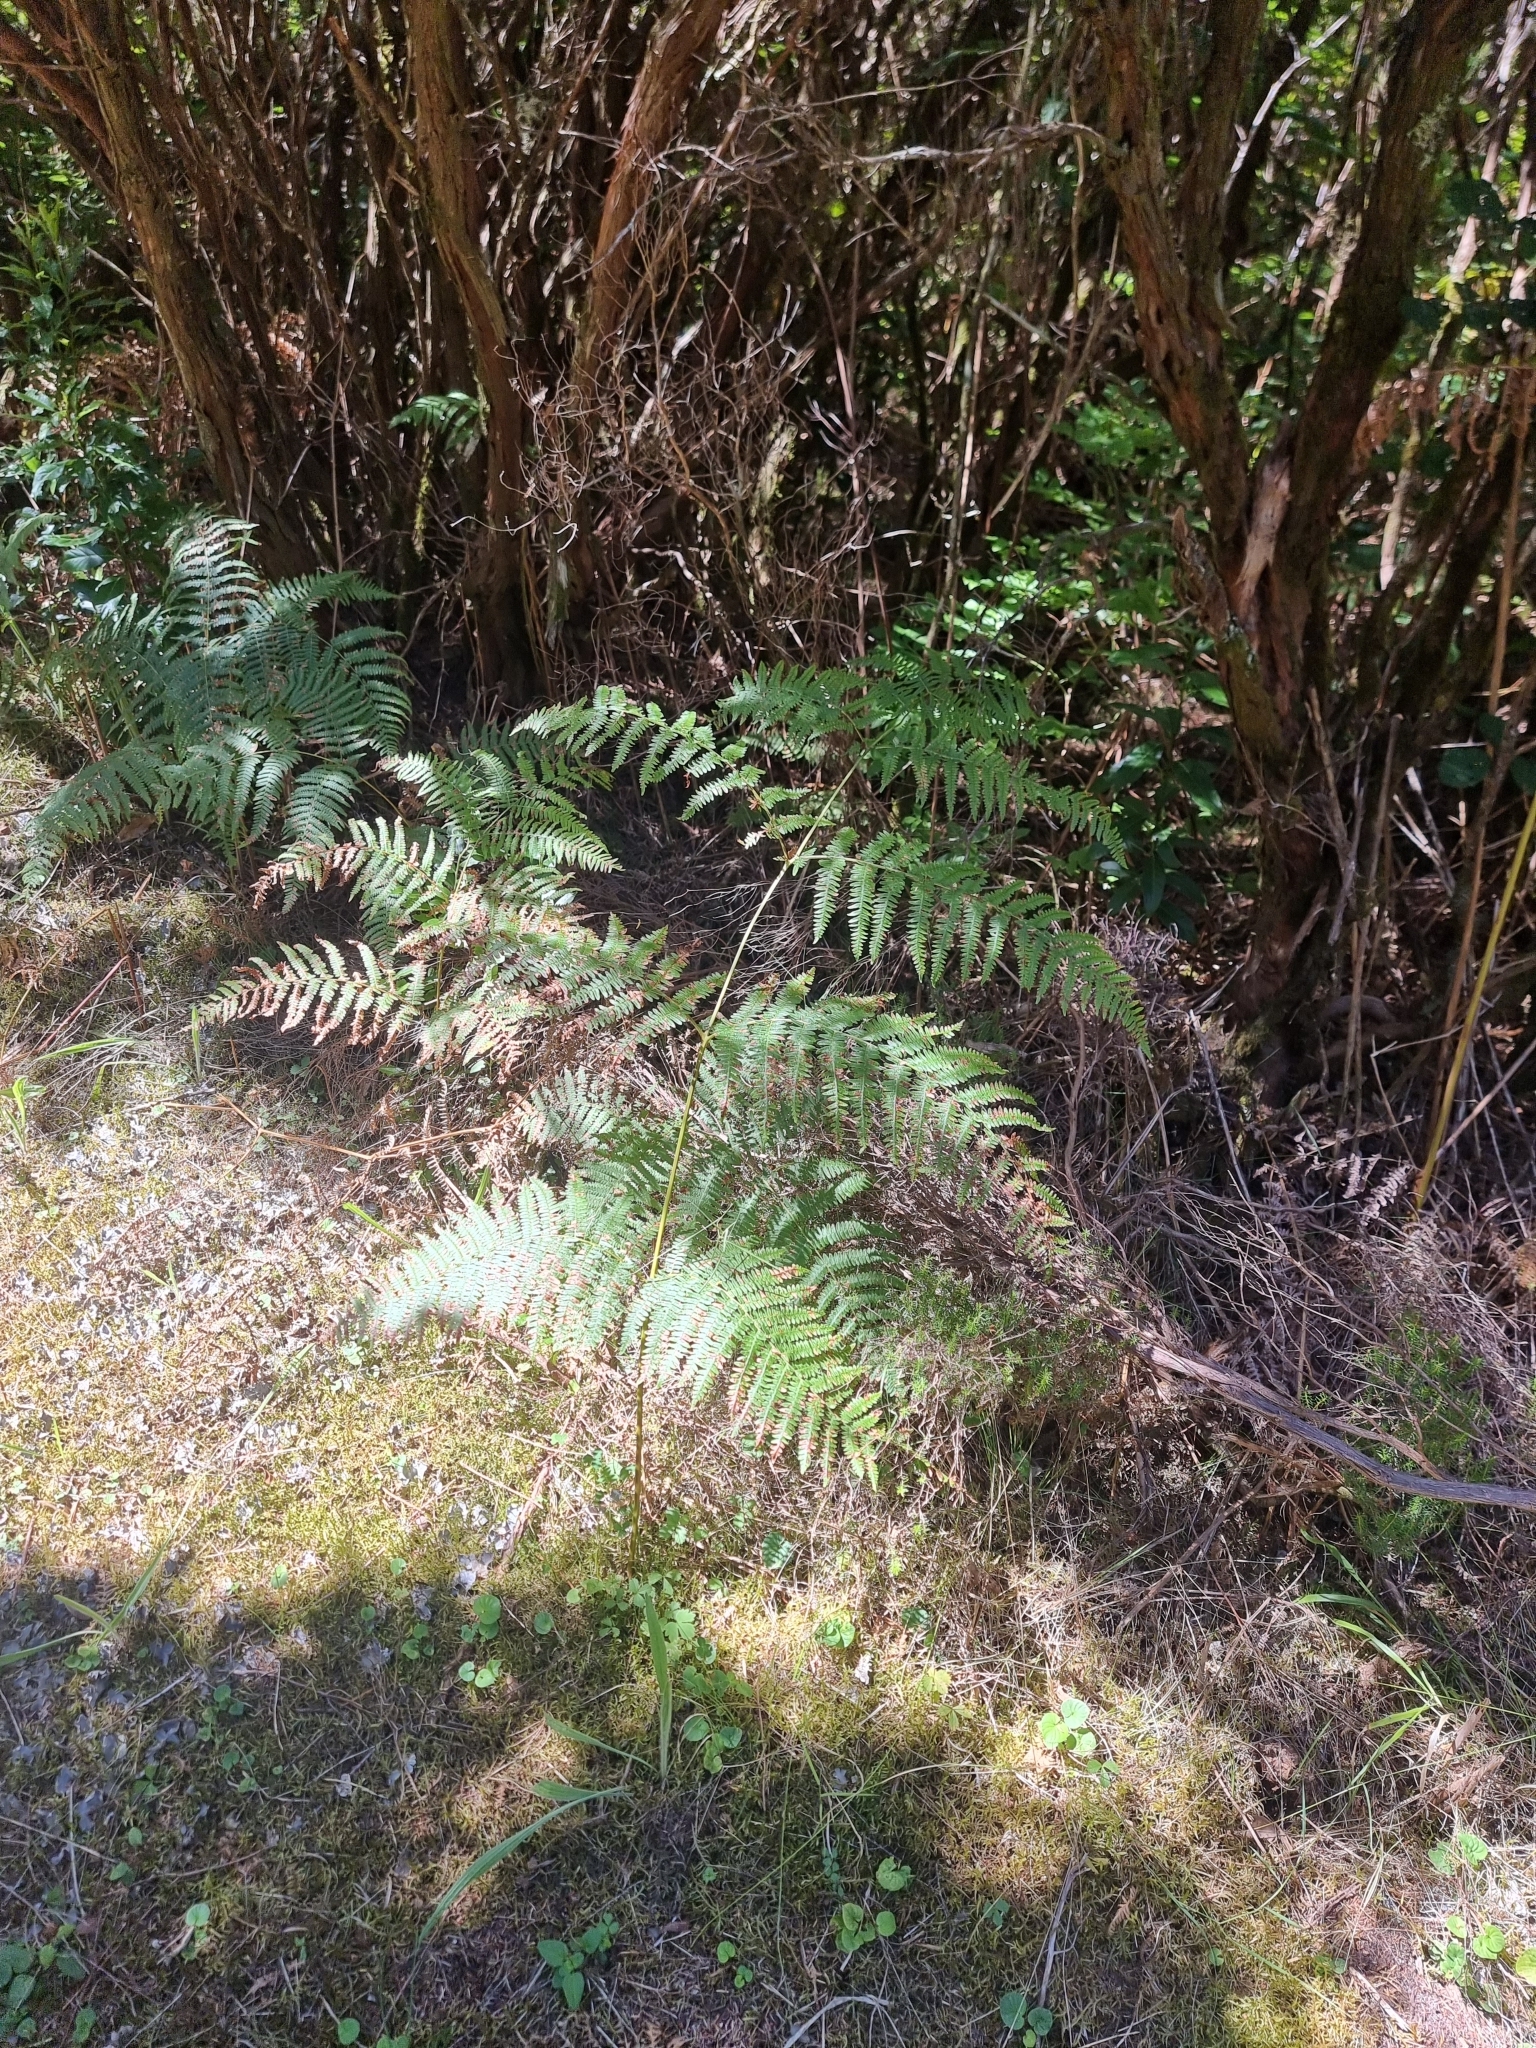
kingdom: Plantae
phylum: Tracheophyta
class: Polypodiopsida
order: Polypodiales
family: Dennstaedtiaceae
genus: Pteridium
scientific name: Pteridium aquilinum
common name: Bracken
